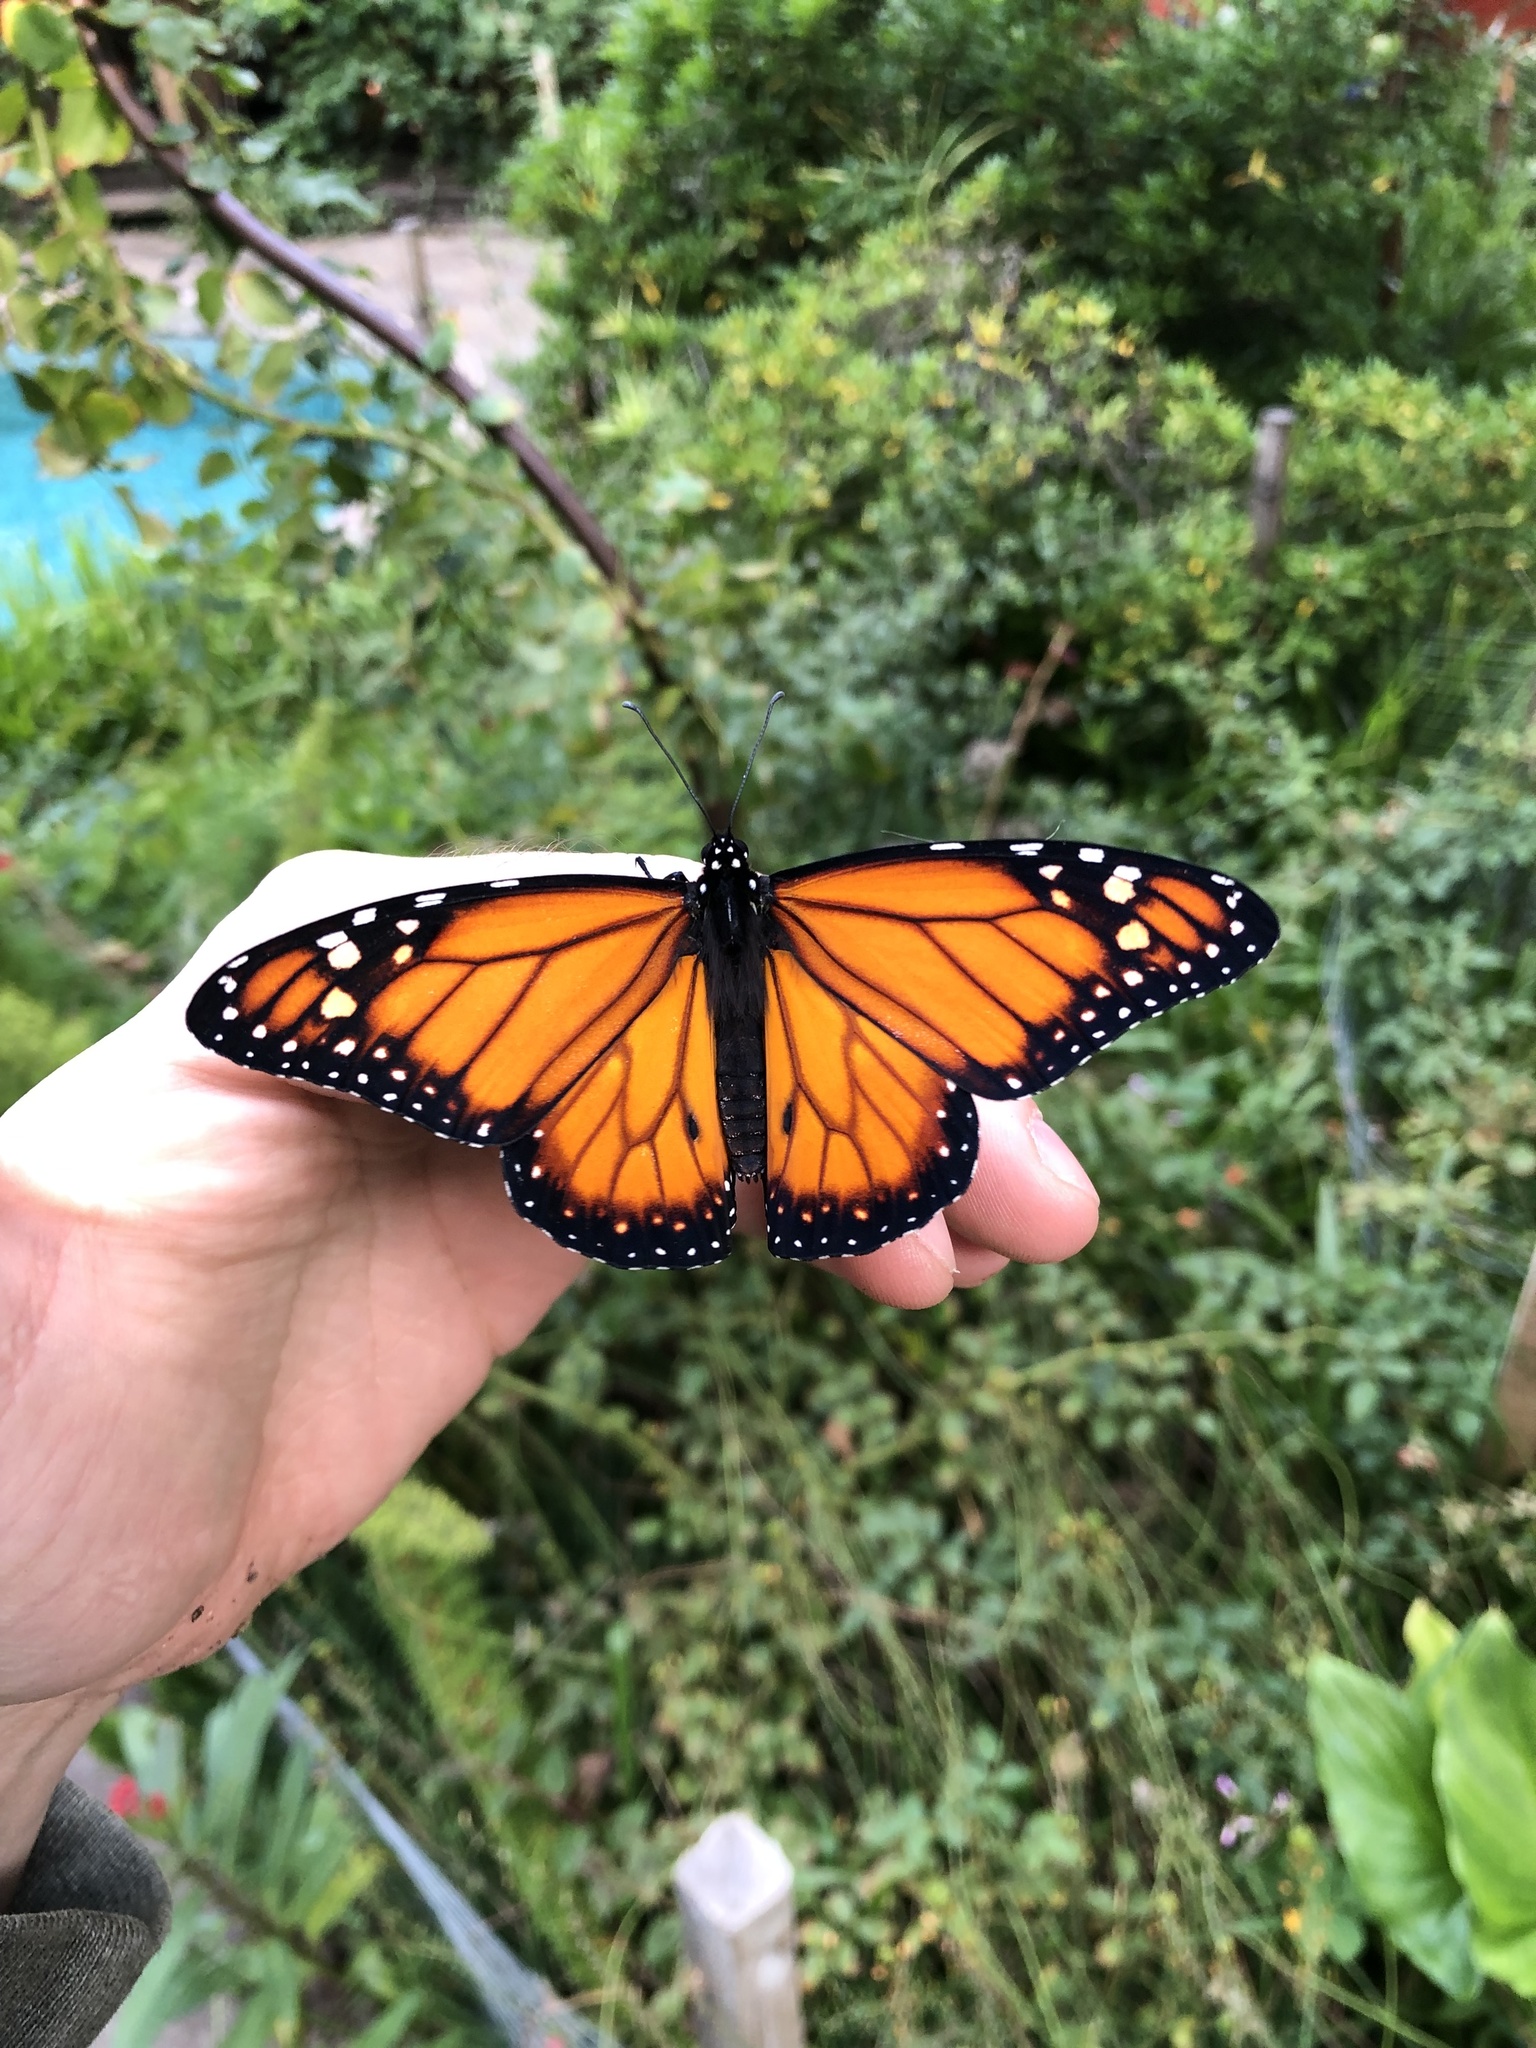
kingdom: Animalia
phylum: Arthropoda
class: Insecta
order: Lepidoptera
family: Nymphalidae
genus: Danaus
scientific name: Danaus erippus
